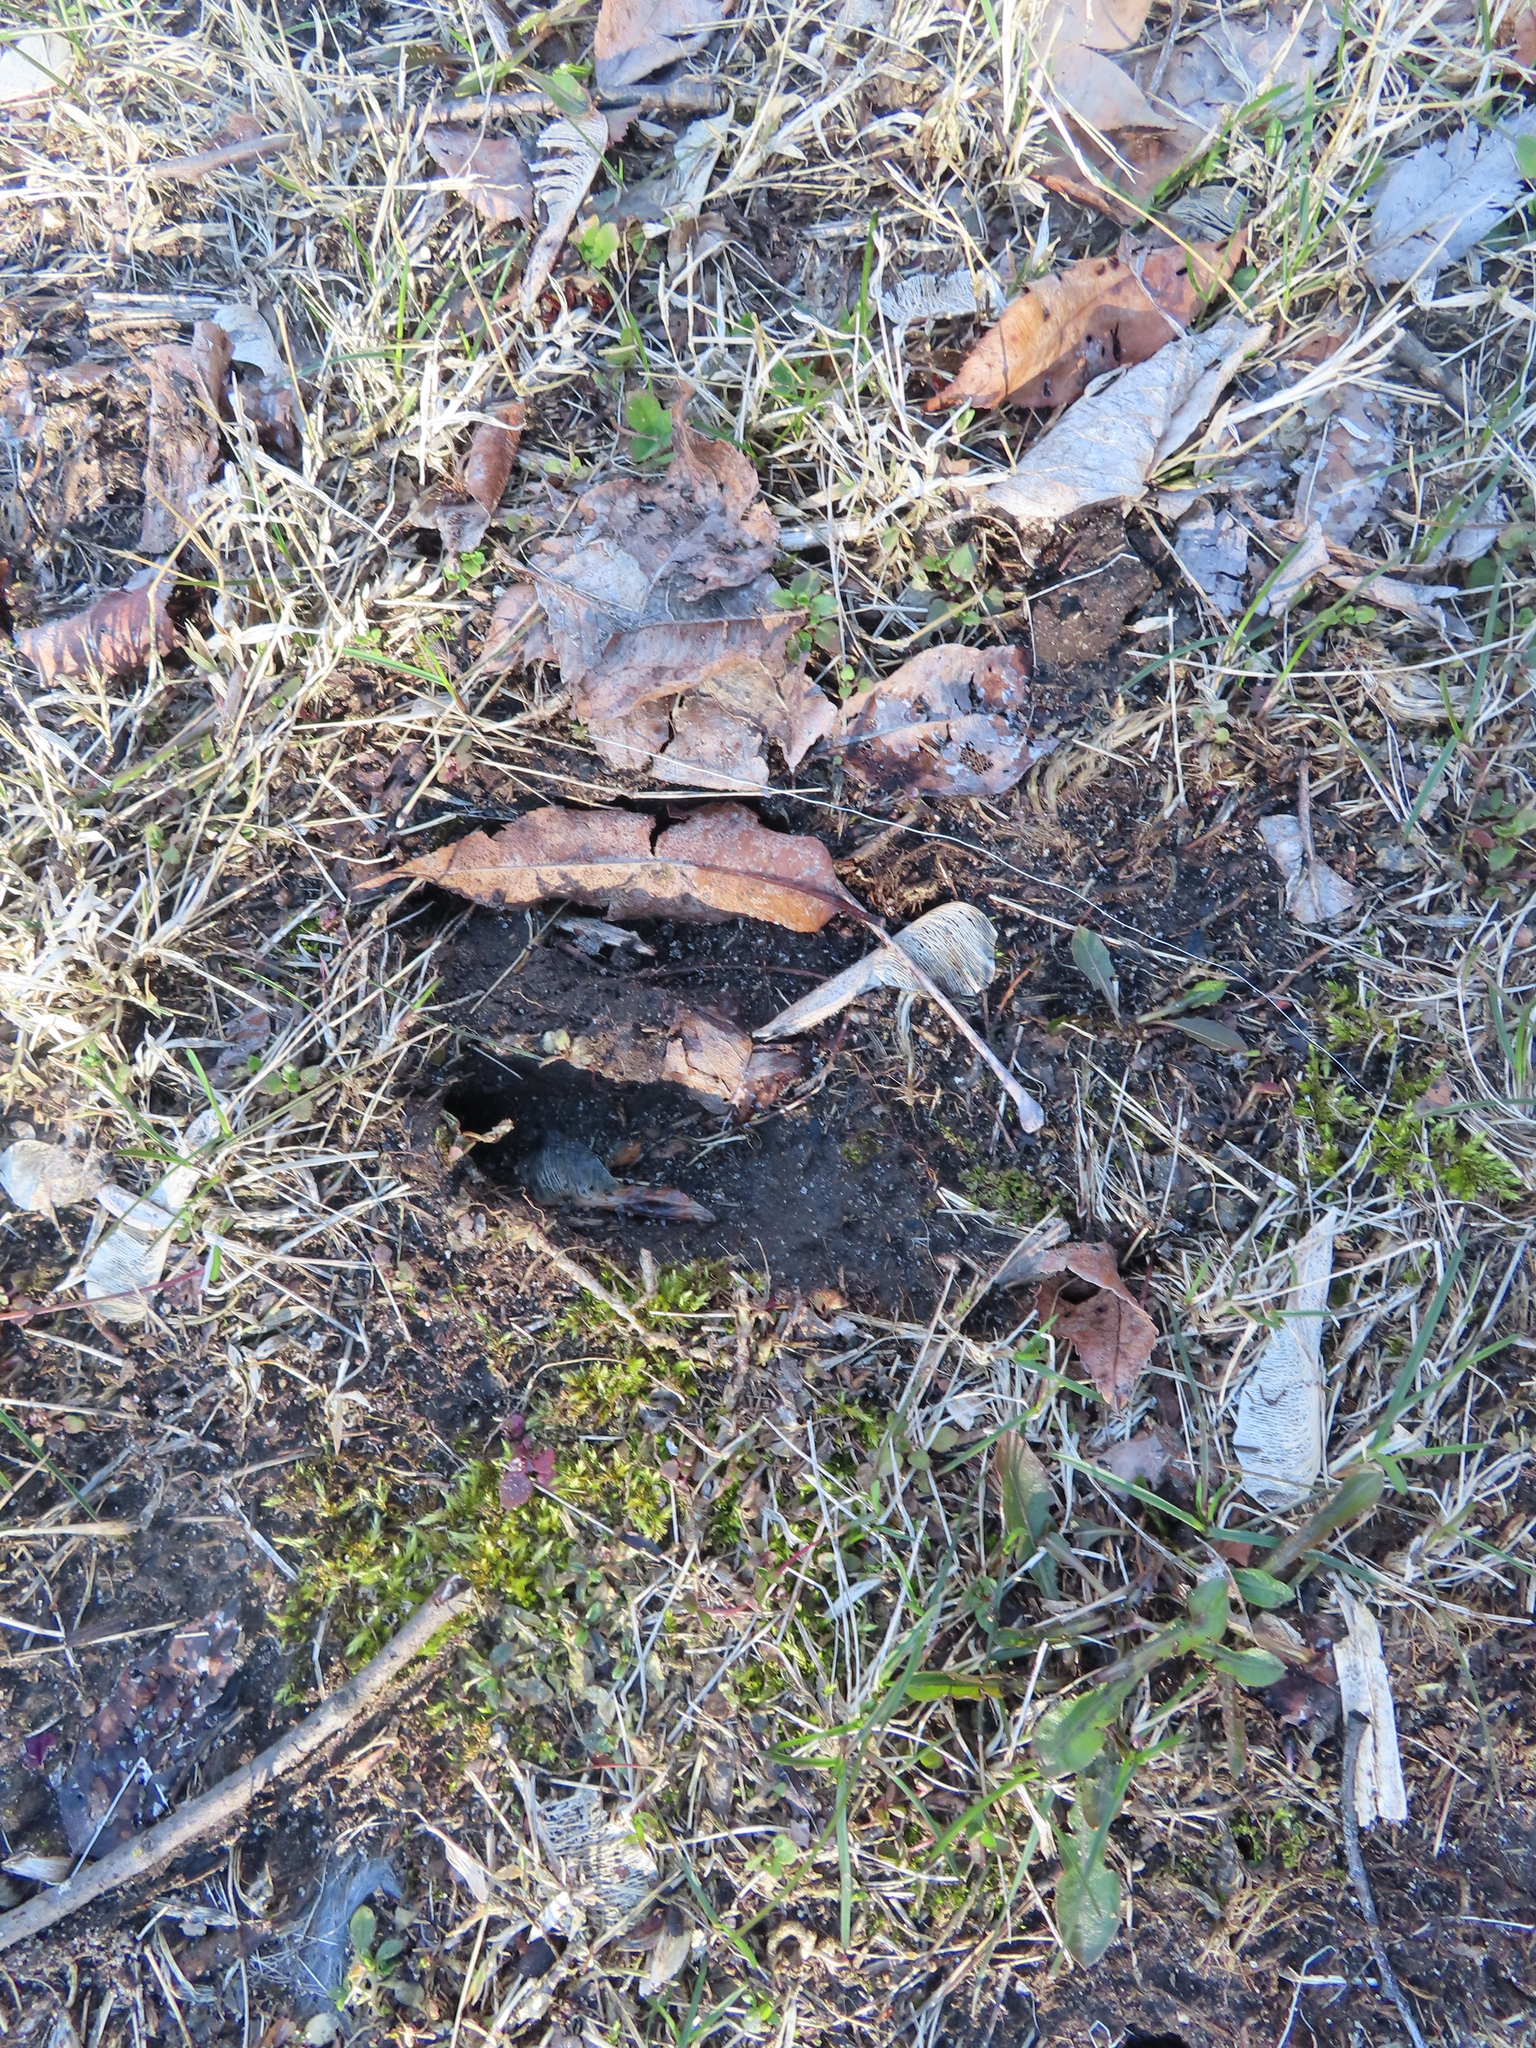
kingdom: Animalia
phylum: Chordata
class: Mammalia
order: Artiodactyla
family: Cervidae
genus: Odocoileus
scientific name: Odocoileus virginianus
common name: White-tailed deer
